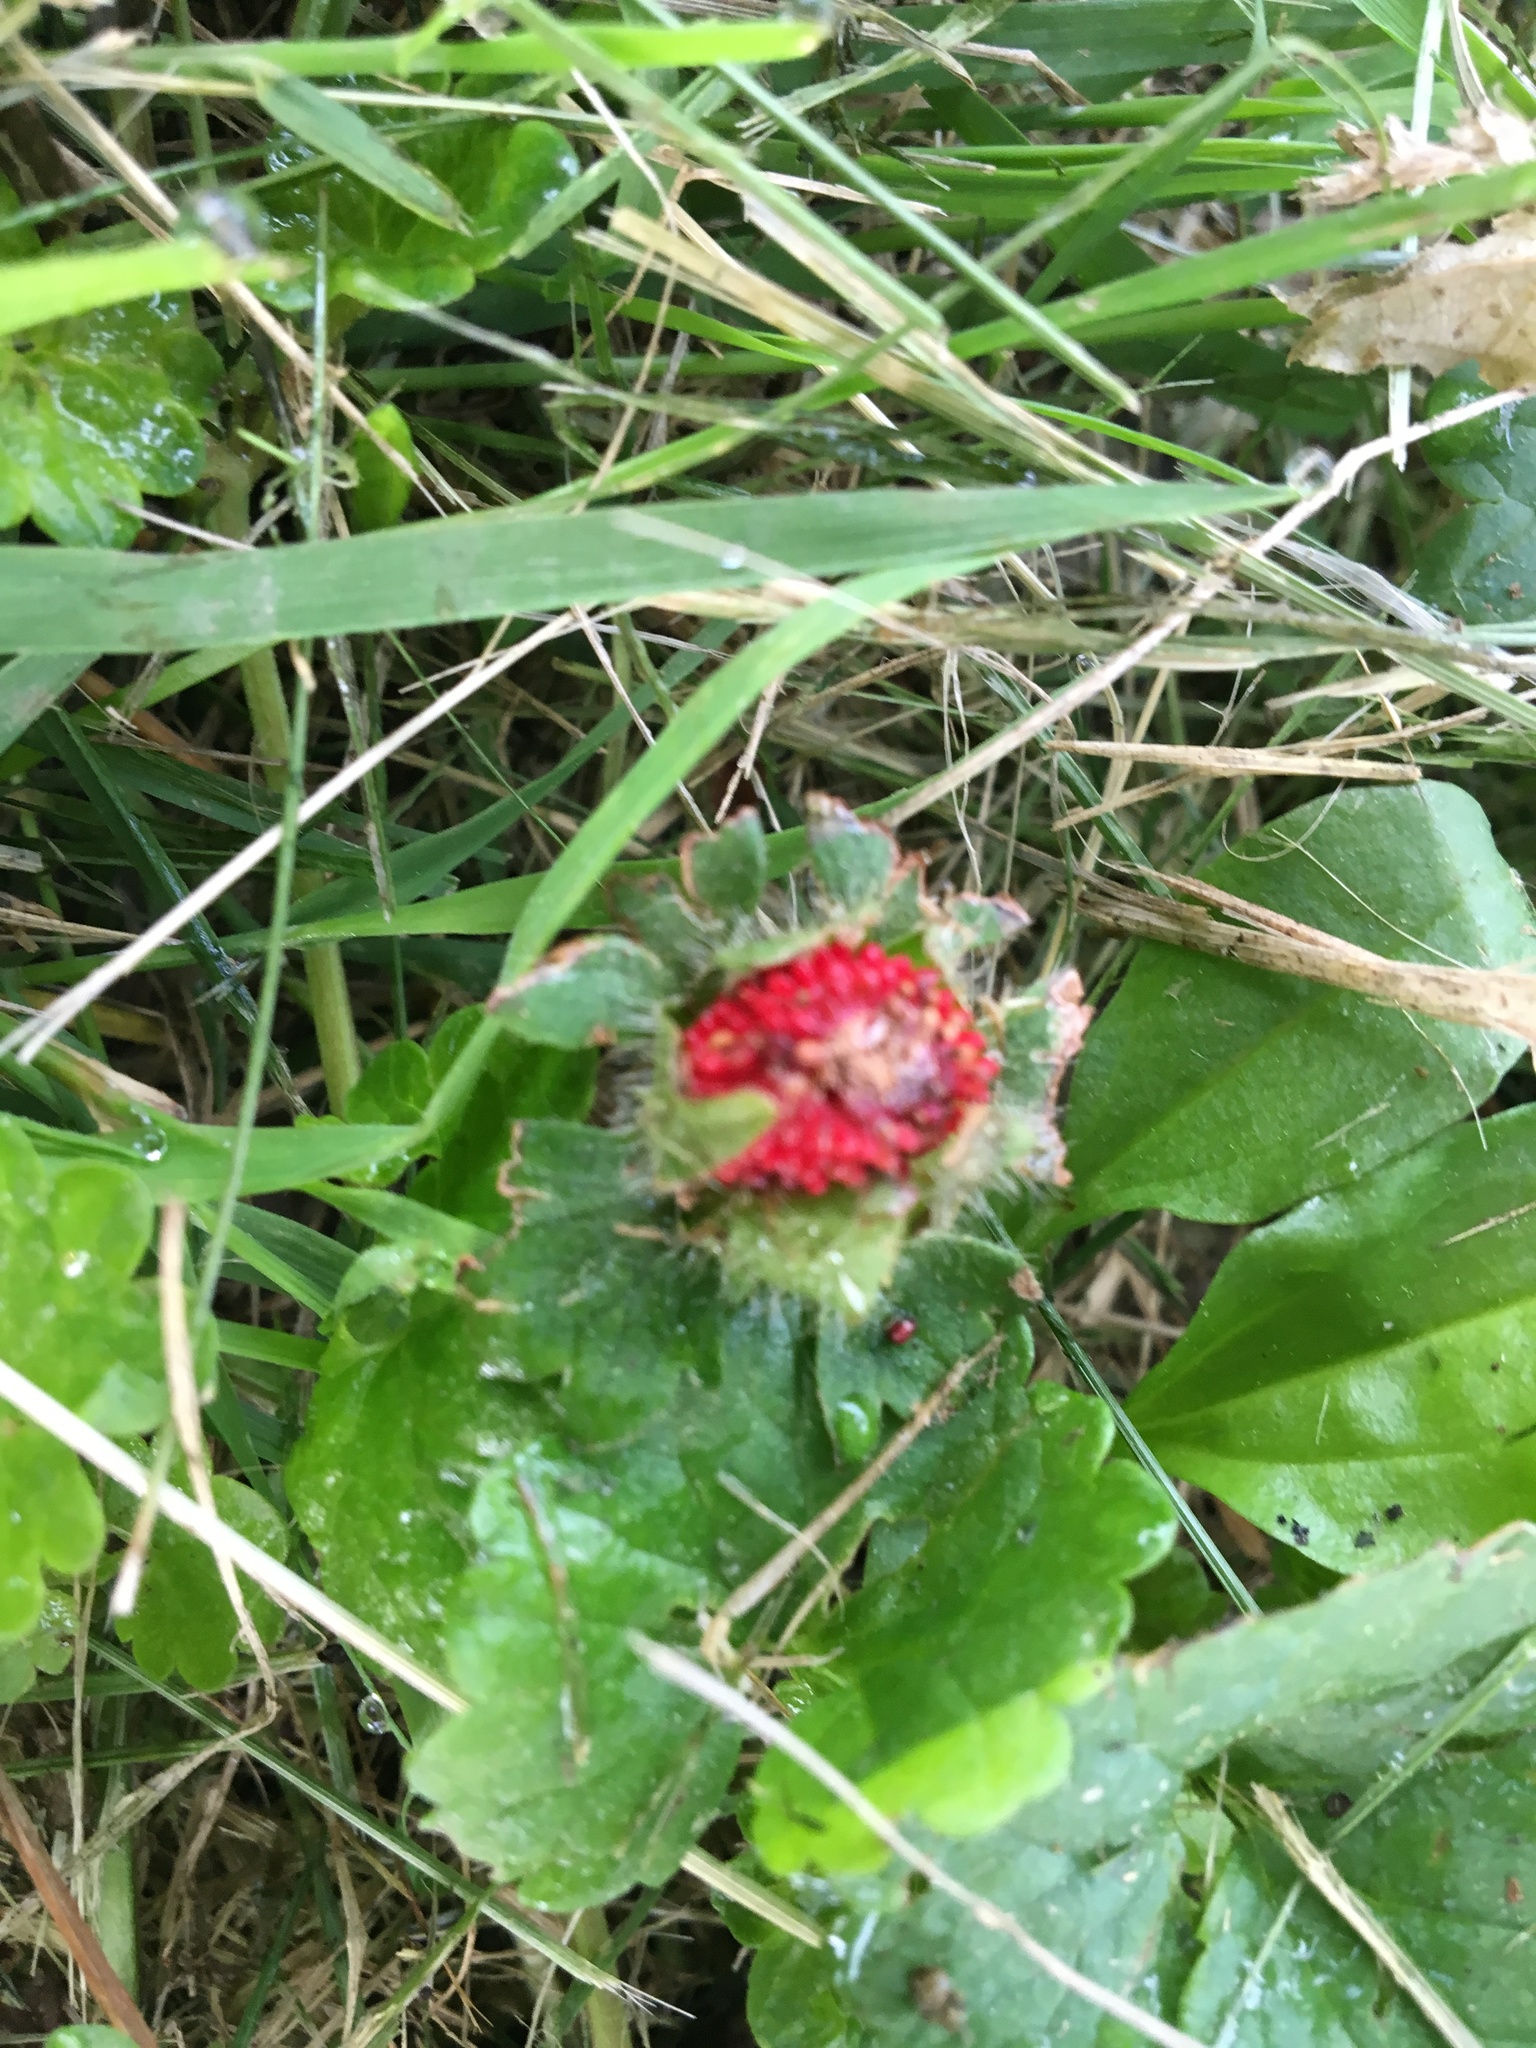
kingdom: Plantae
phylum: Tracheophyta
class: Magnoliopsida
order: Rosales
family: Rosaceae
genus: Potentilla
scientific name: Potentilla indica
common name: Yellow-flowered strawberry
